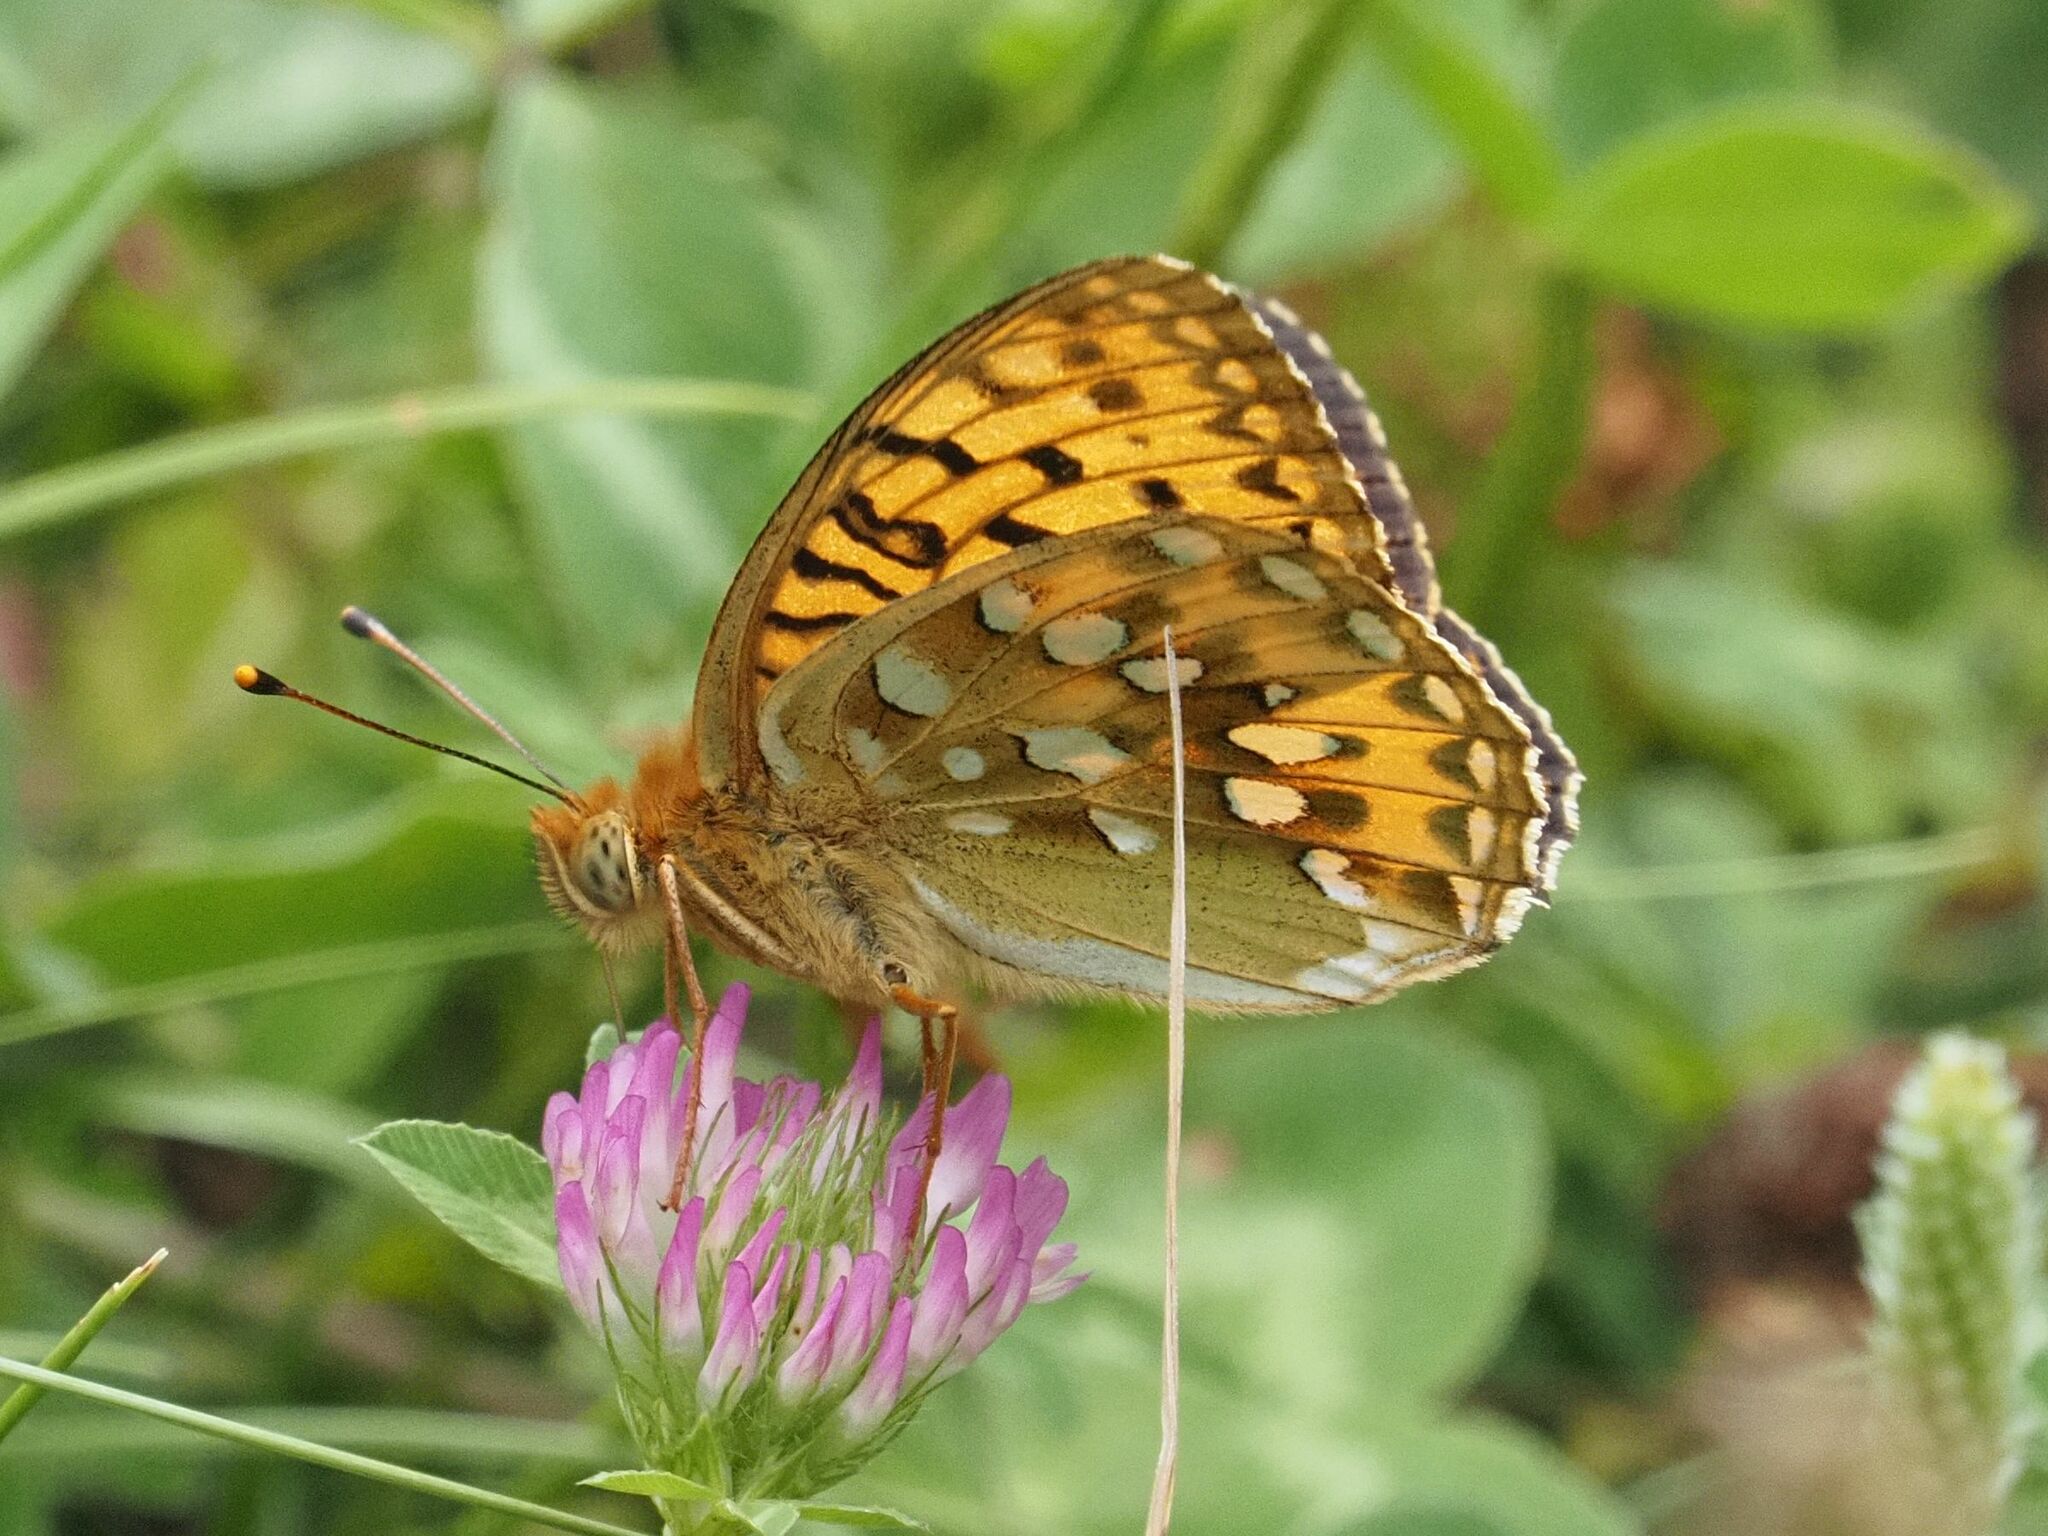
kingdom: Animalia
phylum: Arthropoda
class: Insecta
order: Lepidoptera
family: Nymphalidae
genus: Speyeria
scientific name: Speyeria aglaja
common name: Dark green fritillary
